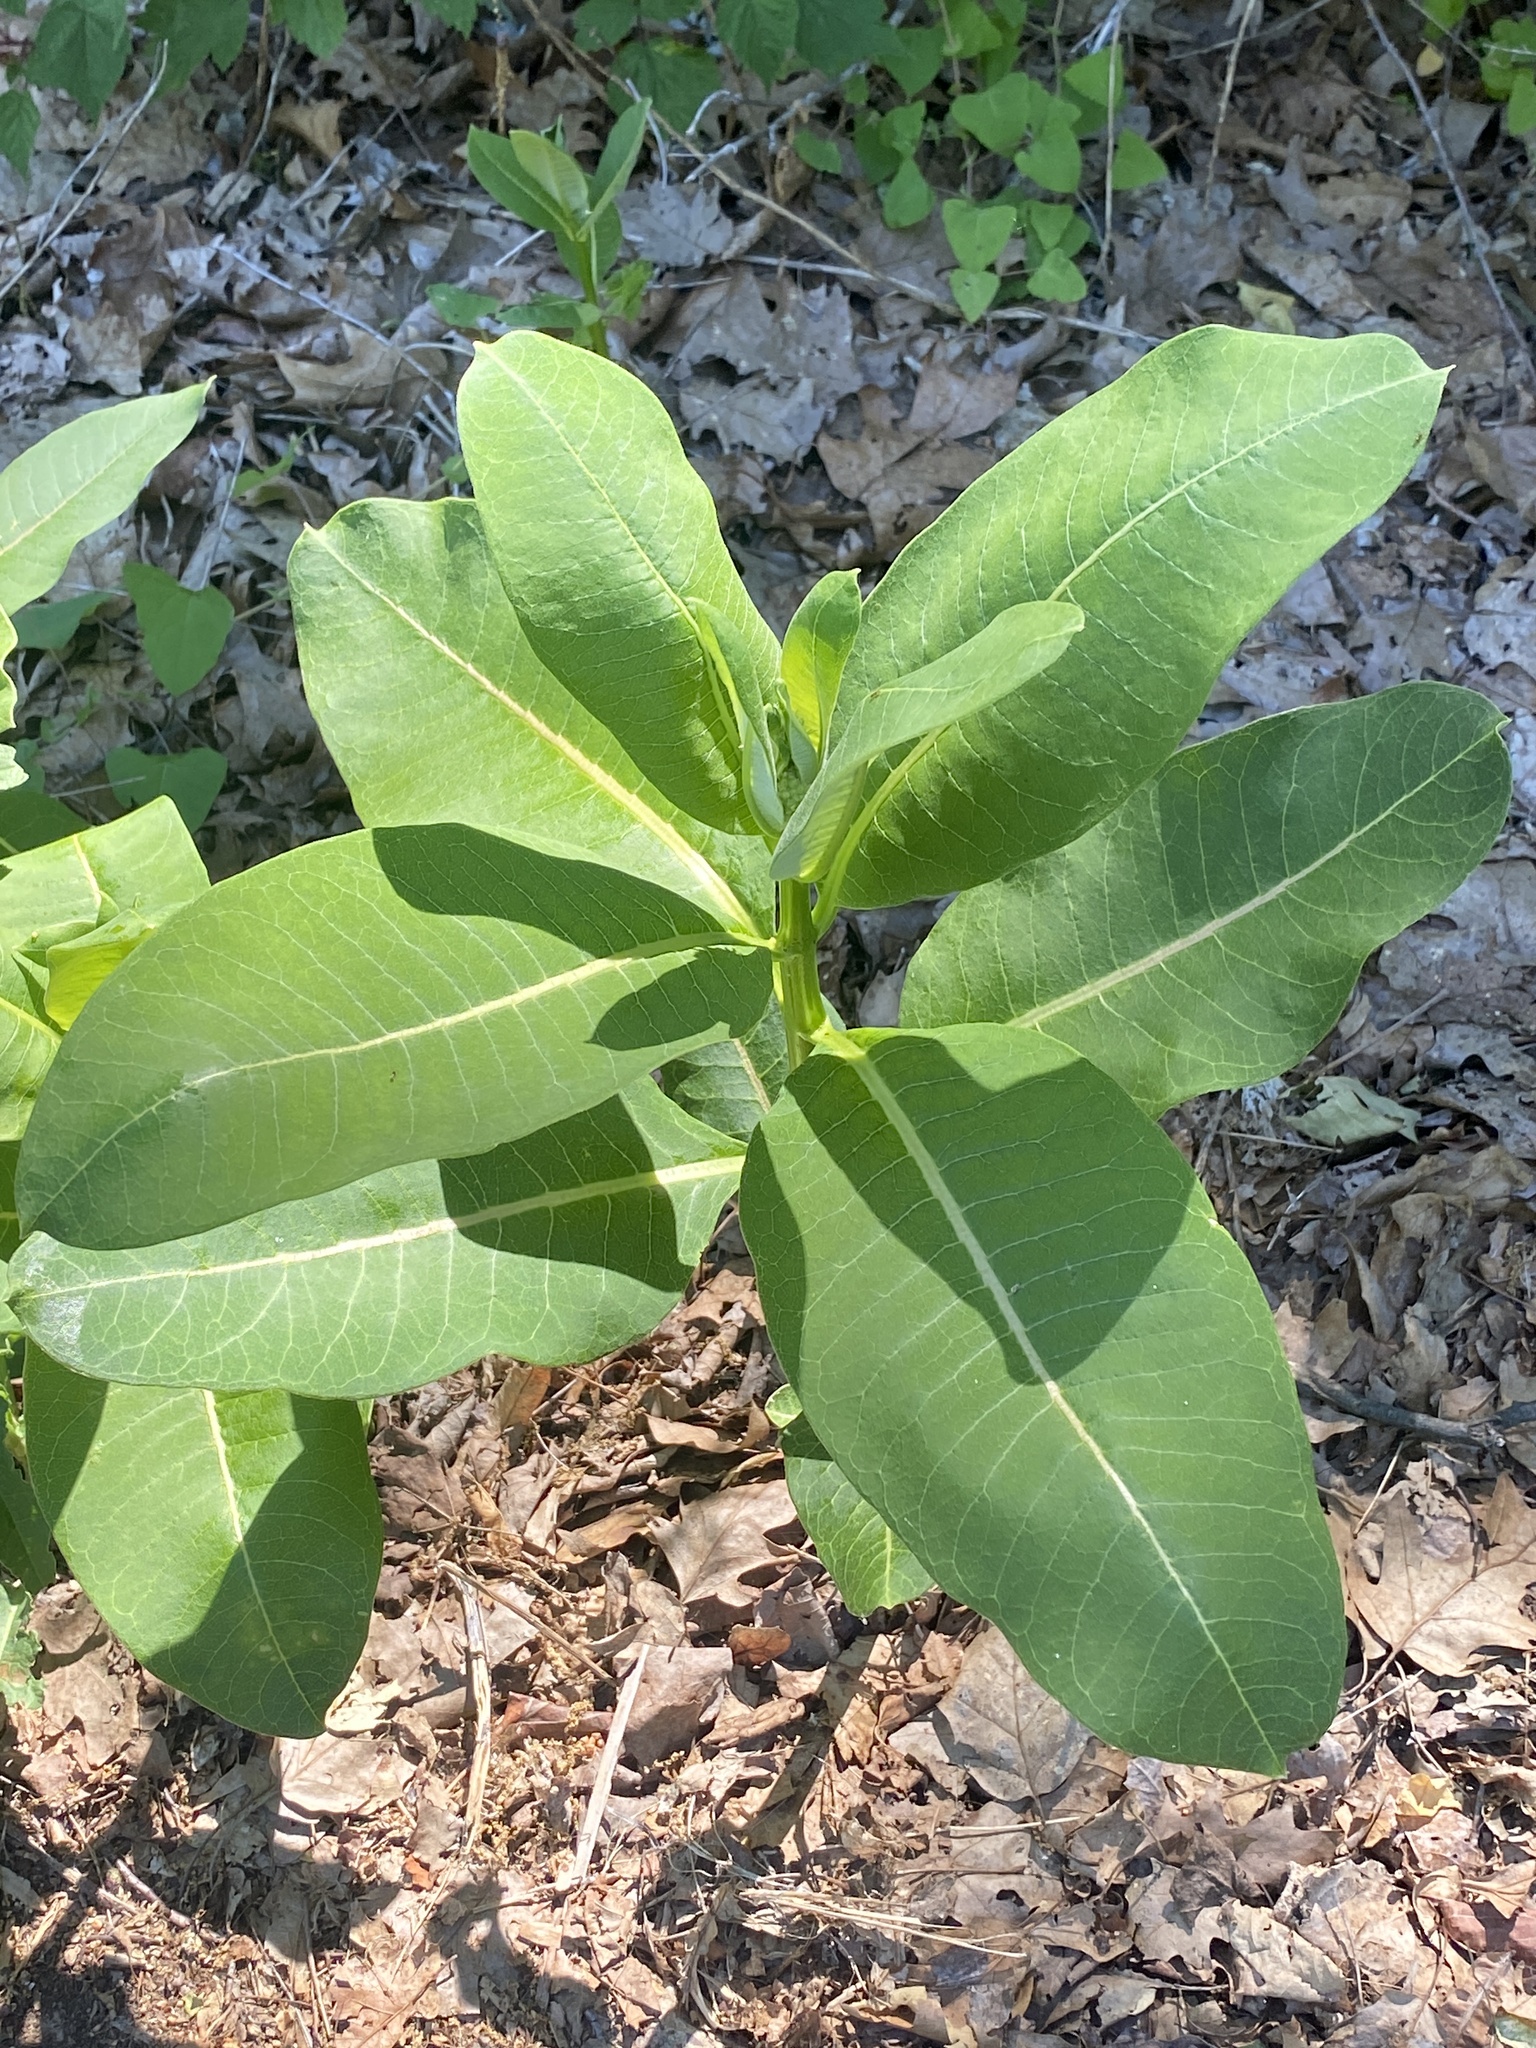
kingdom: Plantae
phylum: Tracheophyta
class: Magnoliopsida
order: Gentianales
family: Apocynaceae
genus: Asclepias
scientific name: Asclepias syriaca
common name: Common milkweed
